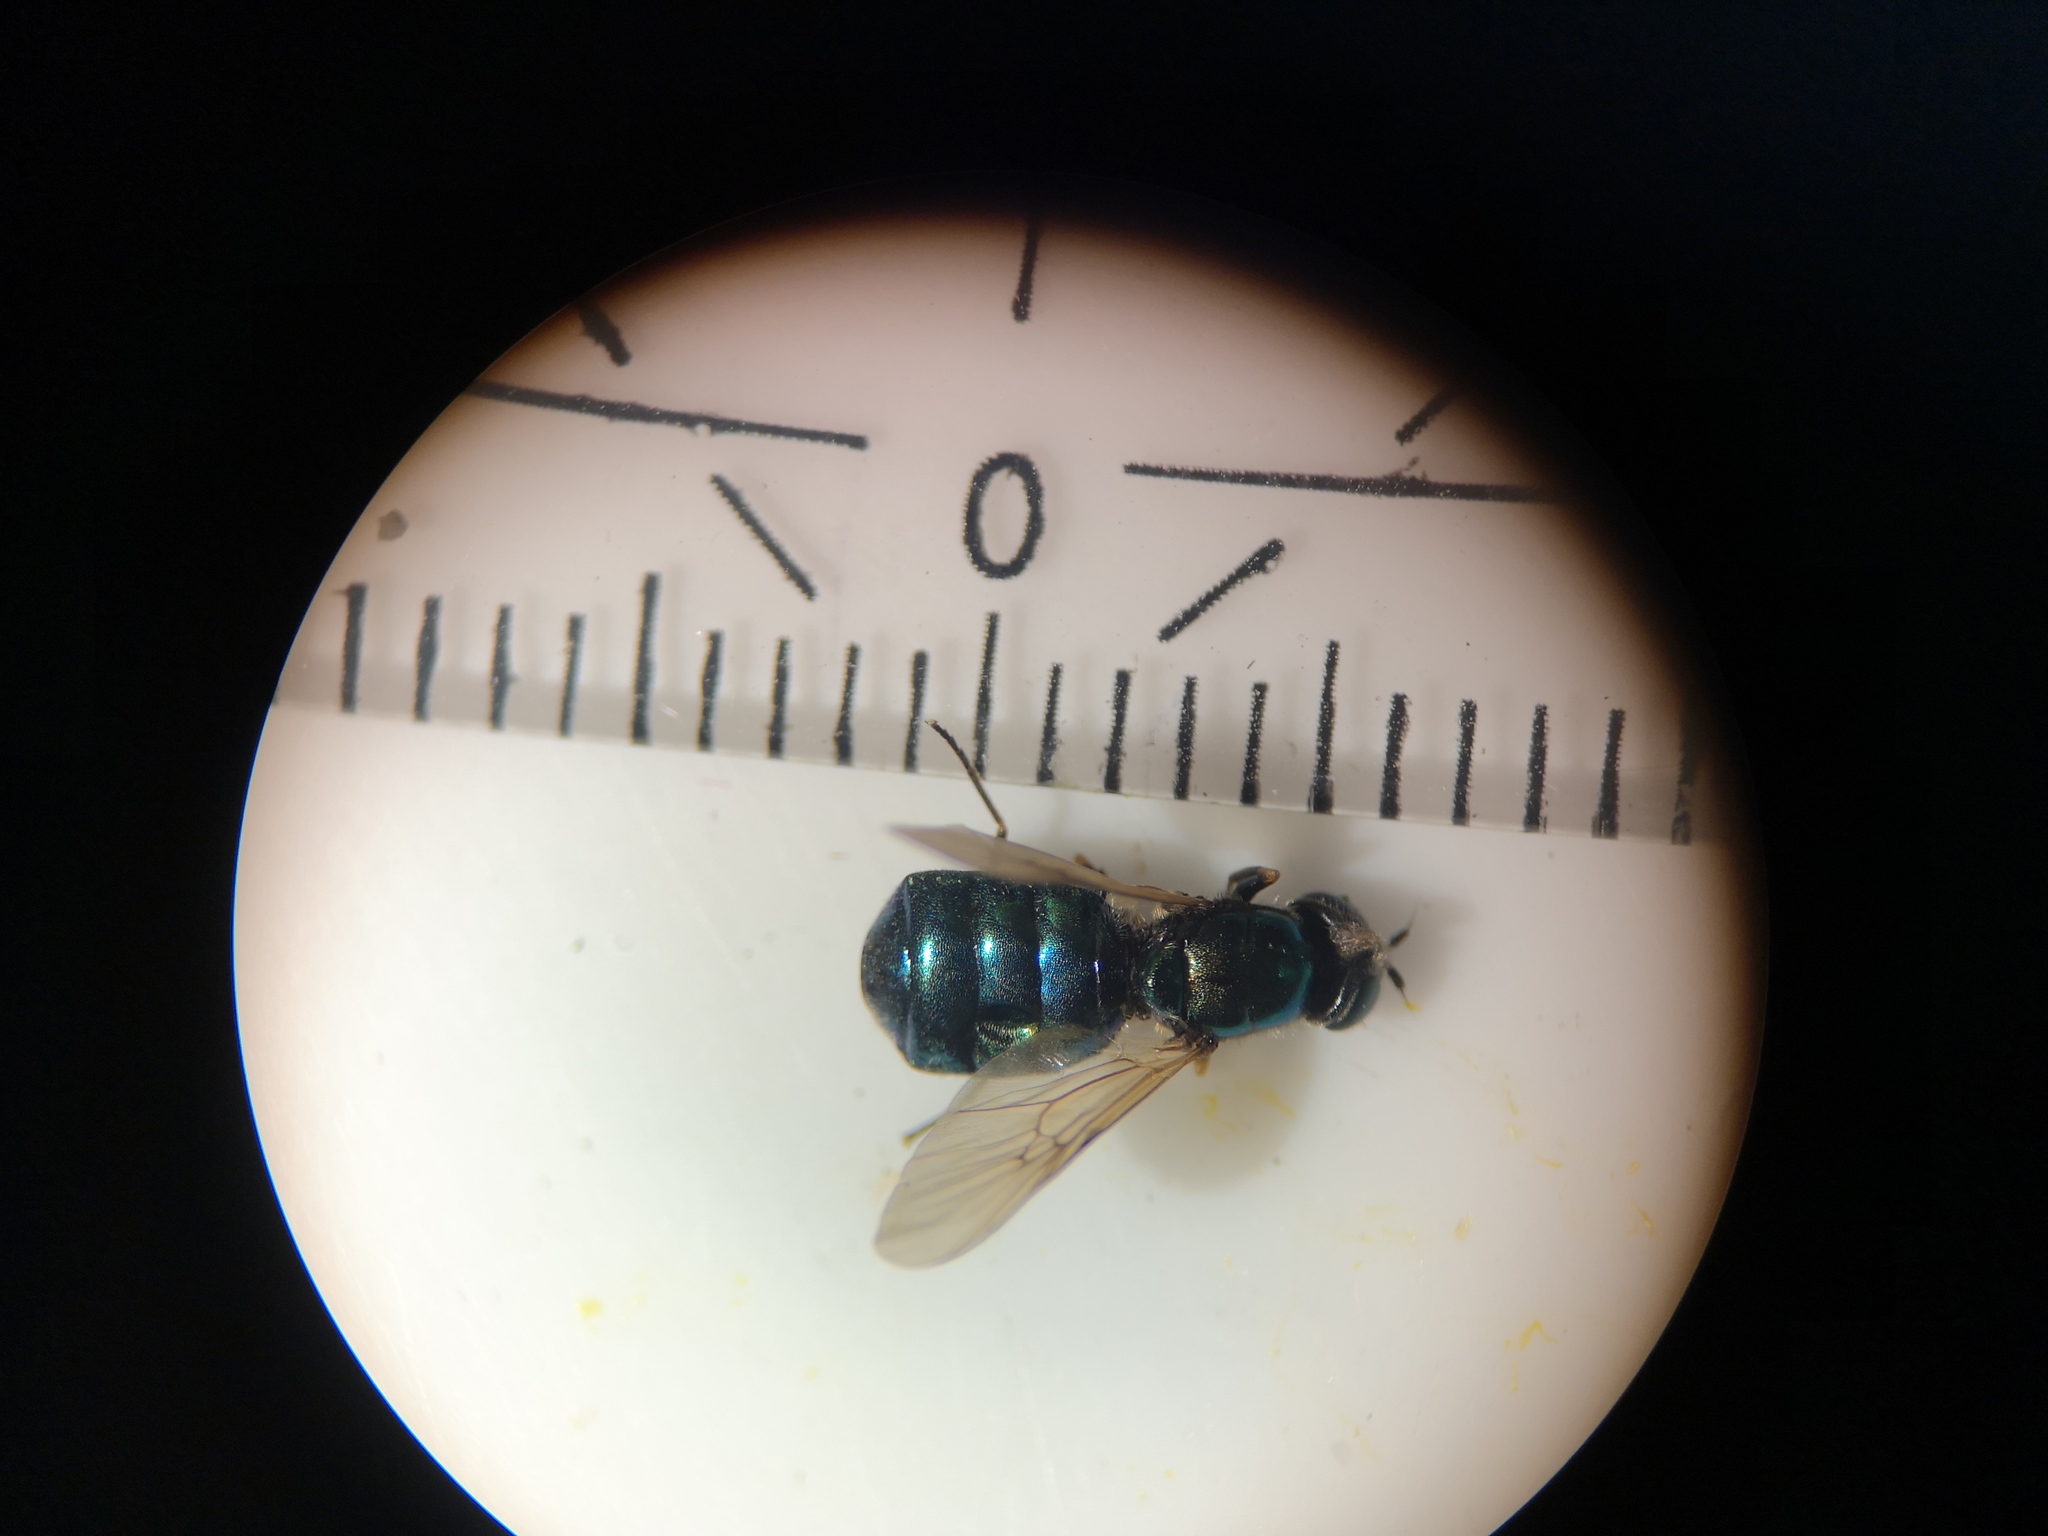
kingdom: Animalia
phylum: Arthropoda
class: Insecta
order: Diptera
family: Stratiomyidae
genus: Chloromyia
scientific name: Chloromyia formosa
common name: Soldier fly
